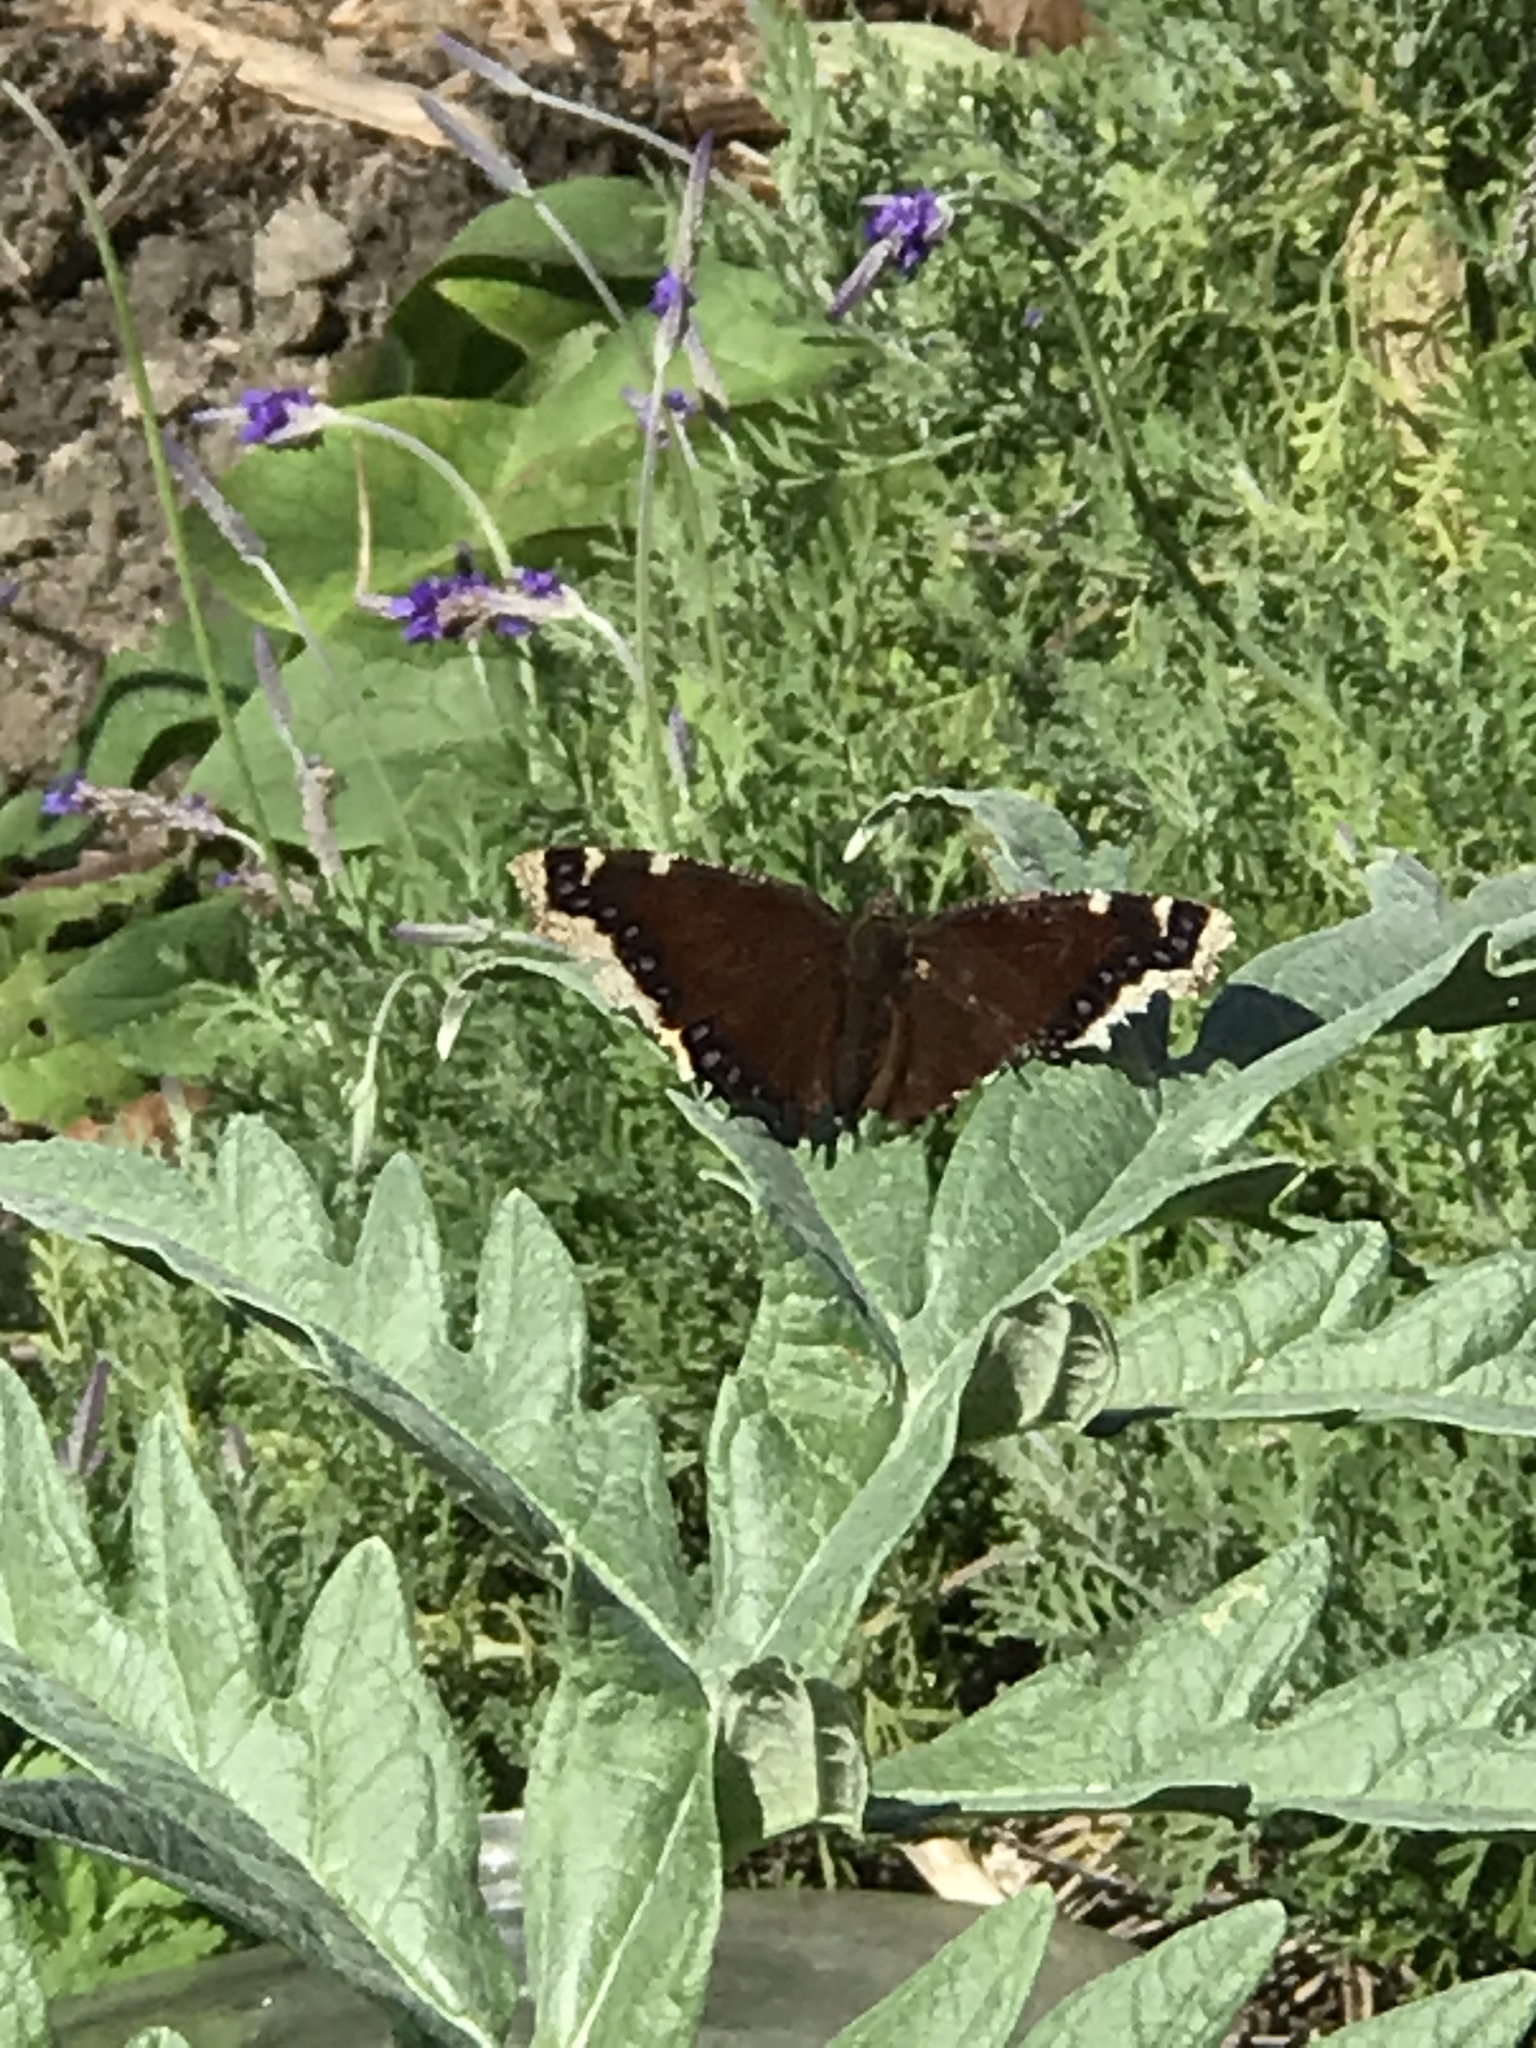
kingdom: Animalia
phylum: Arthropoda
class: Insecta
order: Lepidoptera
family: Nymphalidae
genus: Nymphalis
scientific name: Nymphalis antiopa
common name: Camberwell beauty
